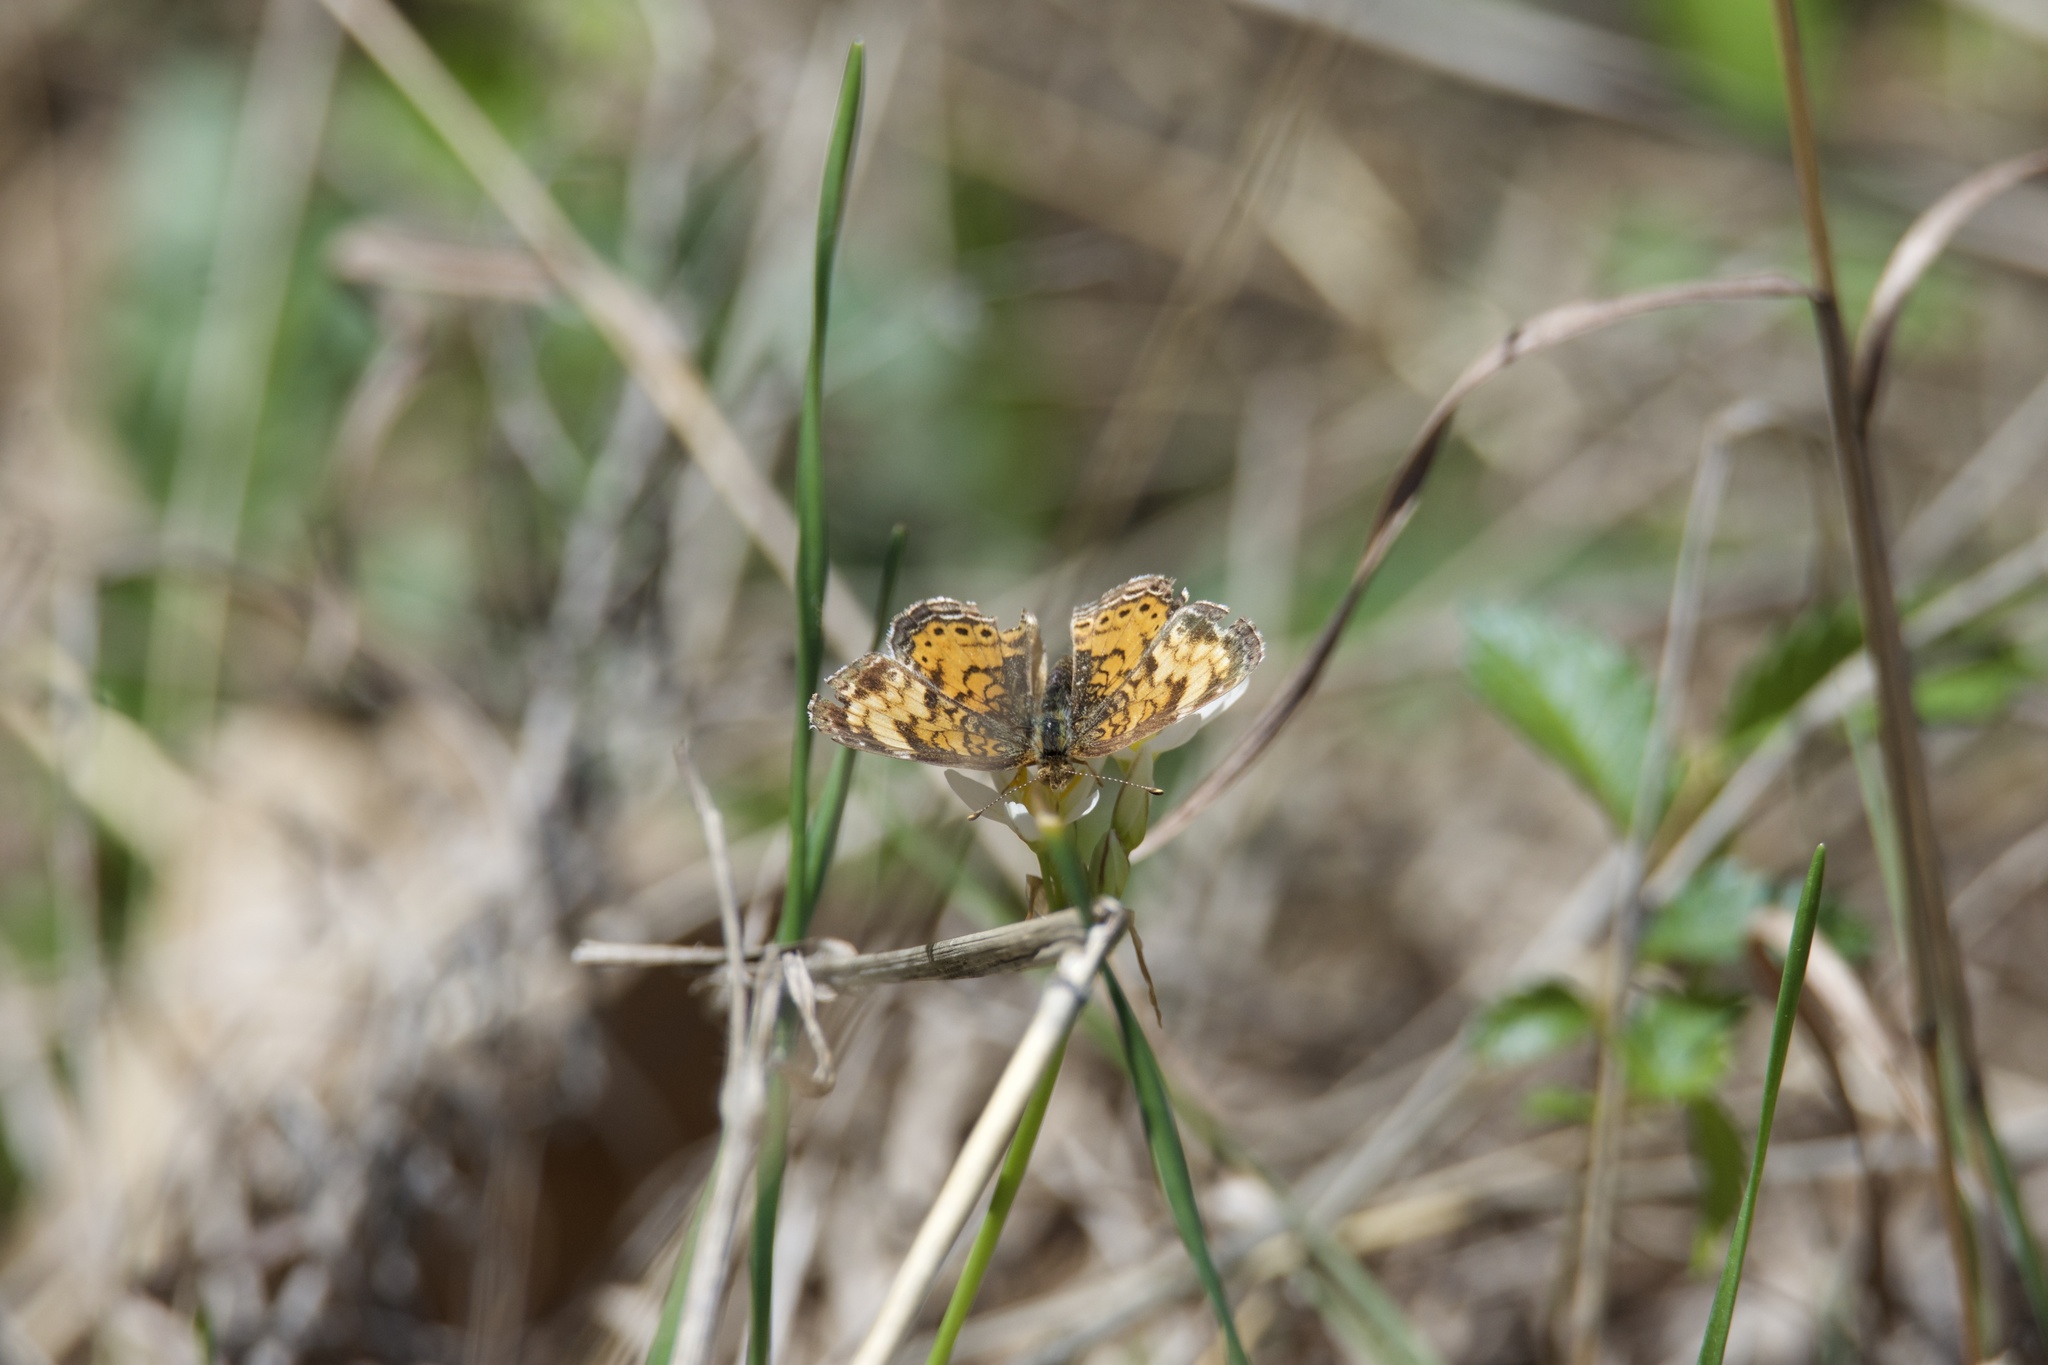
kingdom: Animalia
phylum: Arthropoda
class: Insecta
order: Lepidoptera
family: Nymphalidae
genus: Phyciodes
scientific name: Phyciodes tharos
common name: Pearl crescent
